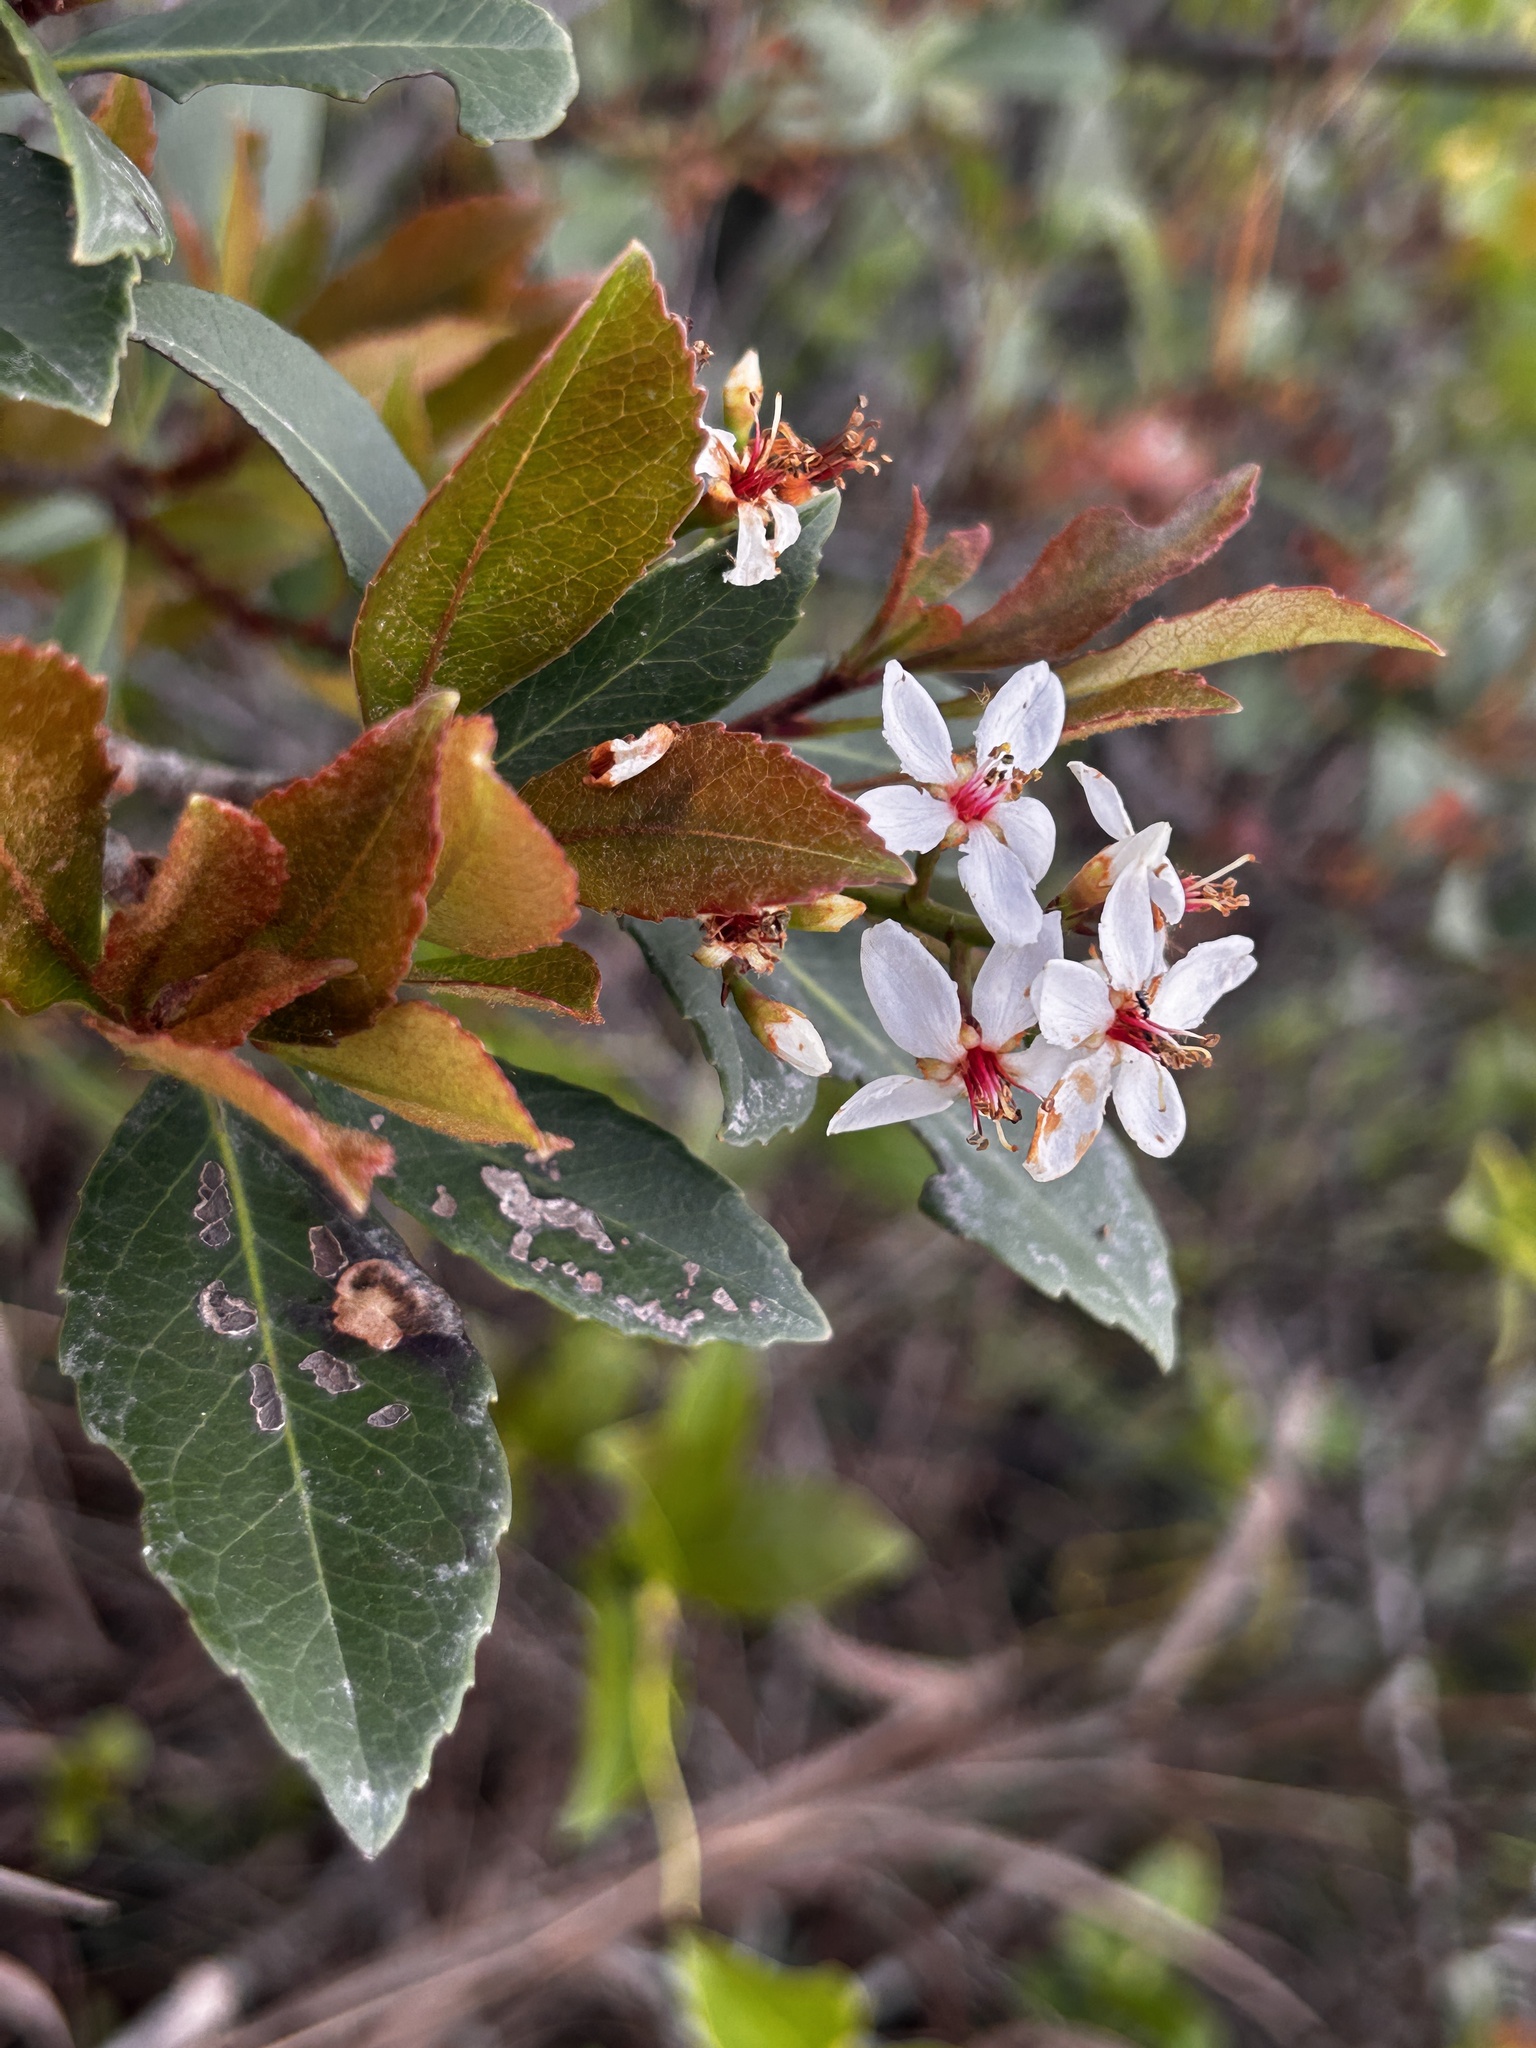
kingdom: Plantae
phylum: Tracheophyta
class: Magnoliopsida
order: Rosales
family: Rosaceae
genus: Rhaphiolepis
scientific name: Rhaphiolepis indica
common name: India-hawthorn
